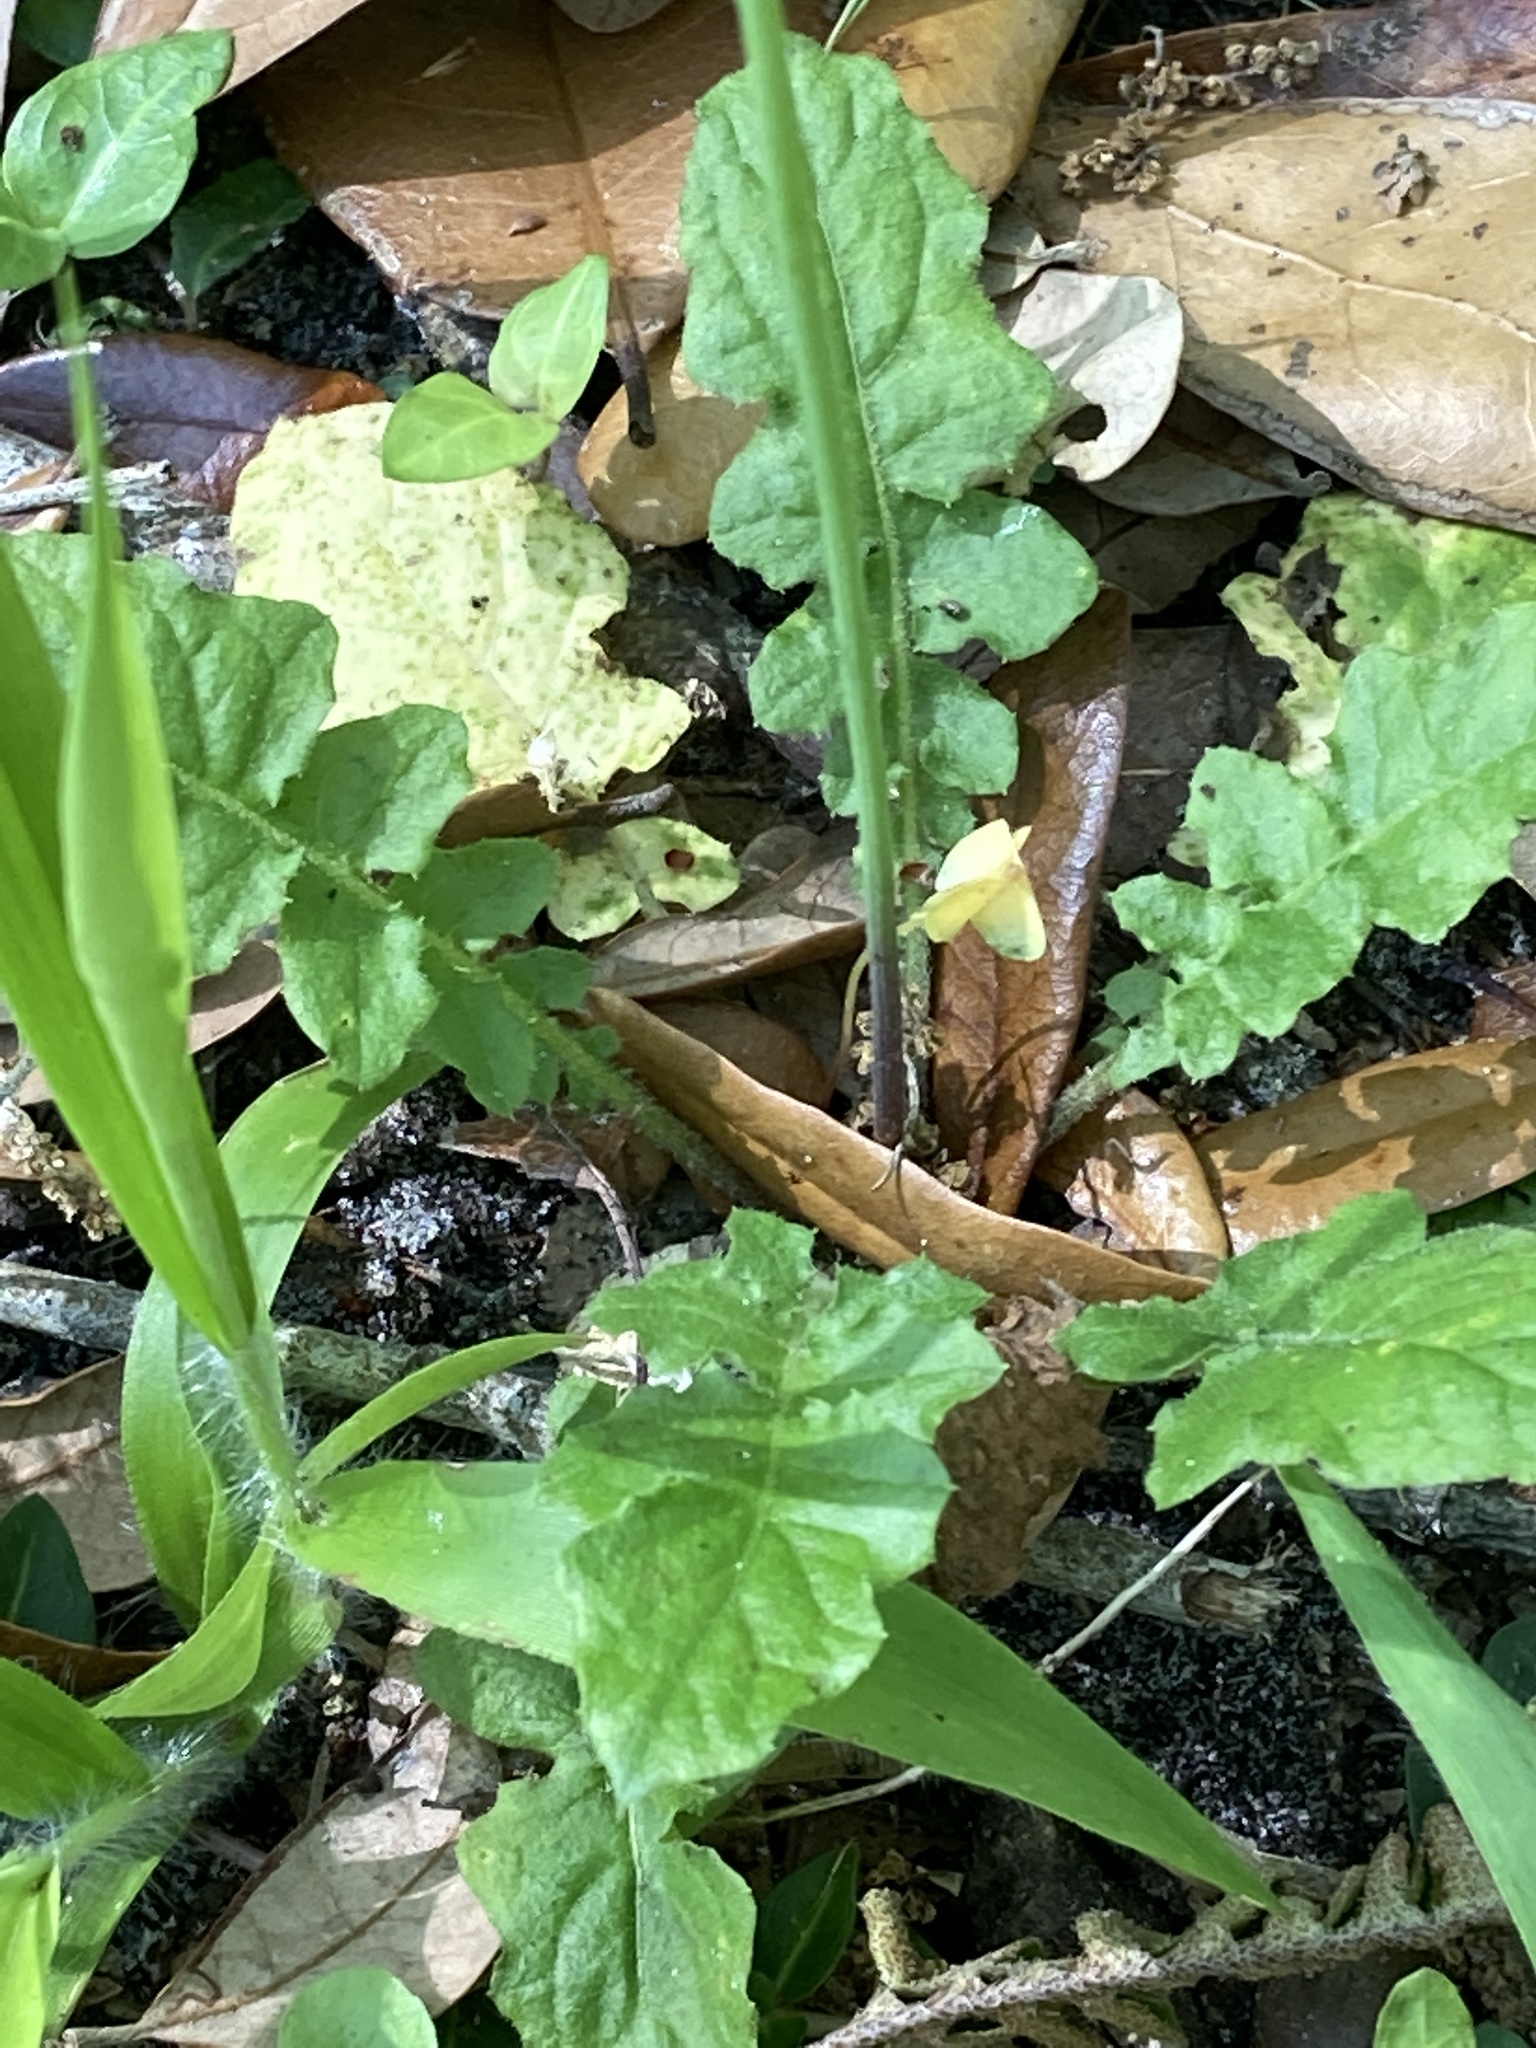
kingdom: Plantae
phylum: Tracheophyta
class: Magnoliopsida
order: Asterales
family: Asteraceae
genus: Youngia
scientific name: Youngia japonica
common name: Oriental false hawksbeard
